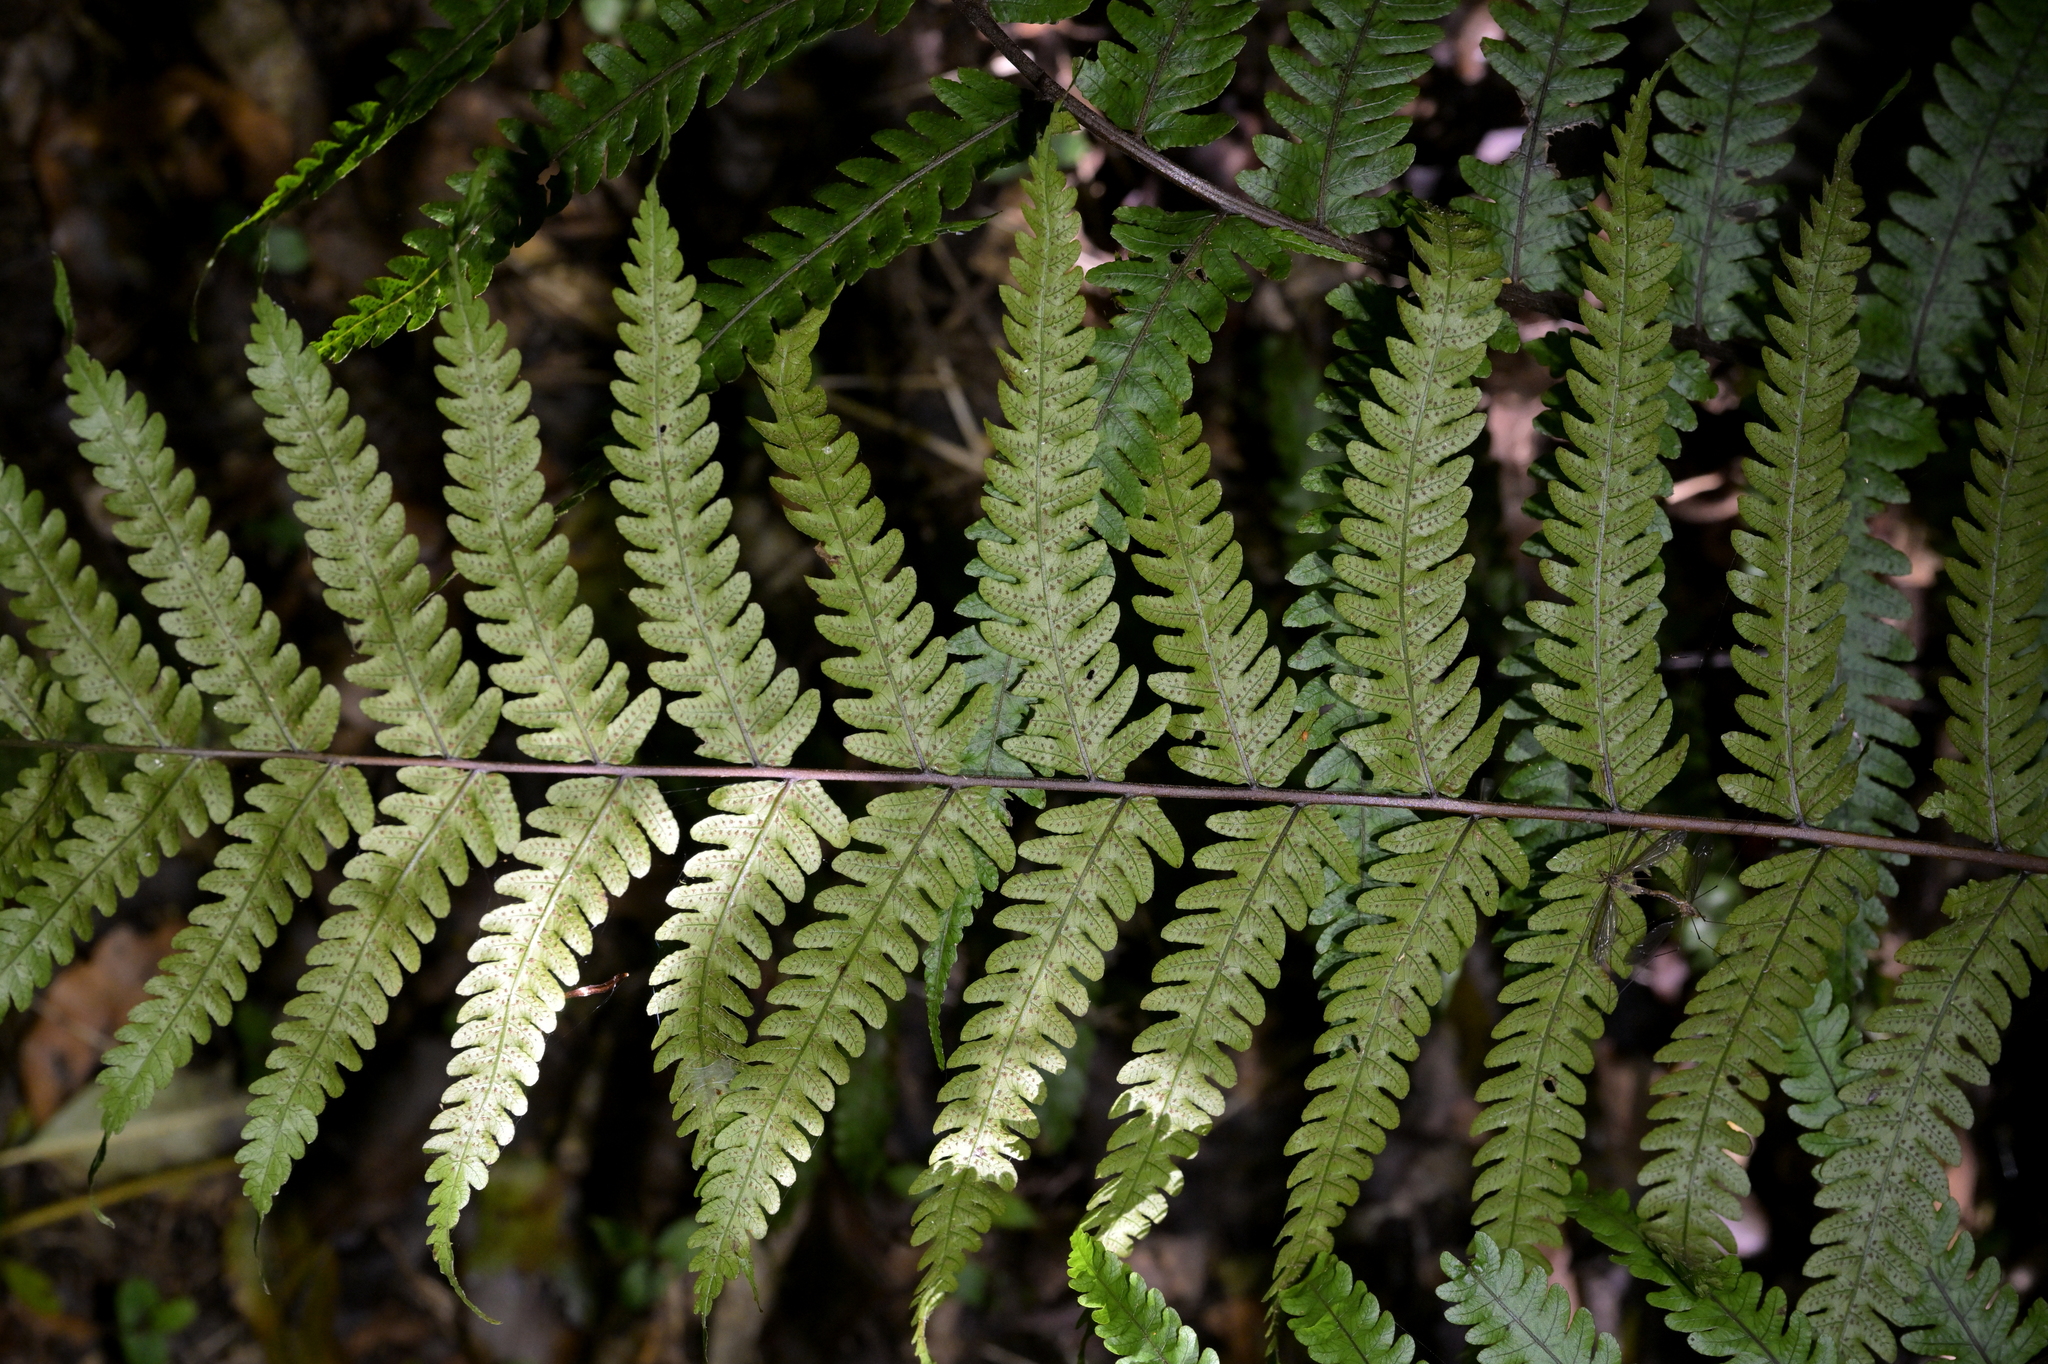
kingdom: Plantae
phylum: Tracheophyta
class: Polypodiopsida
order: Polypodiales
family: Thelypteridaceae
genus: Pakau
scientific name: Pakau pennigera
